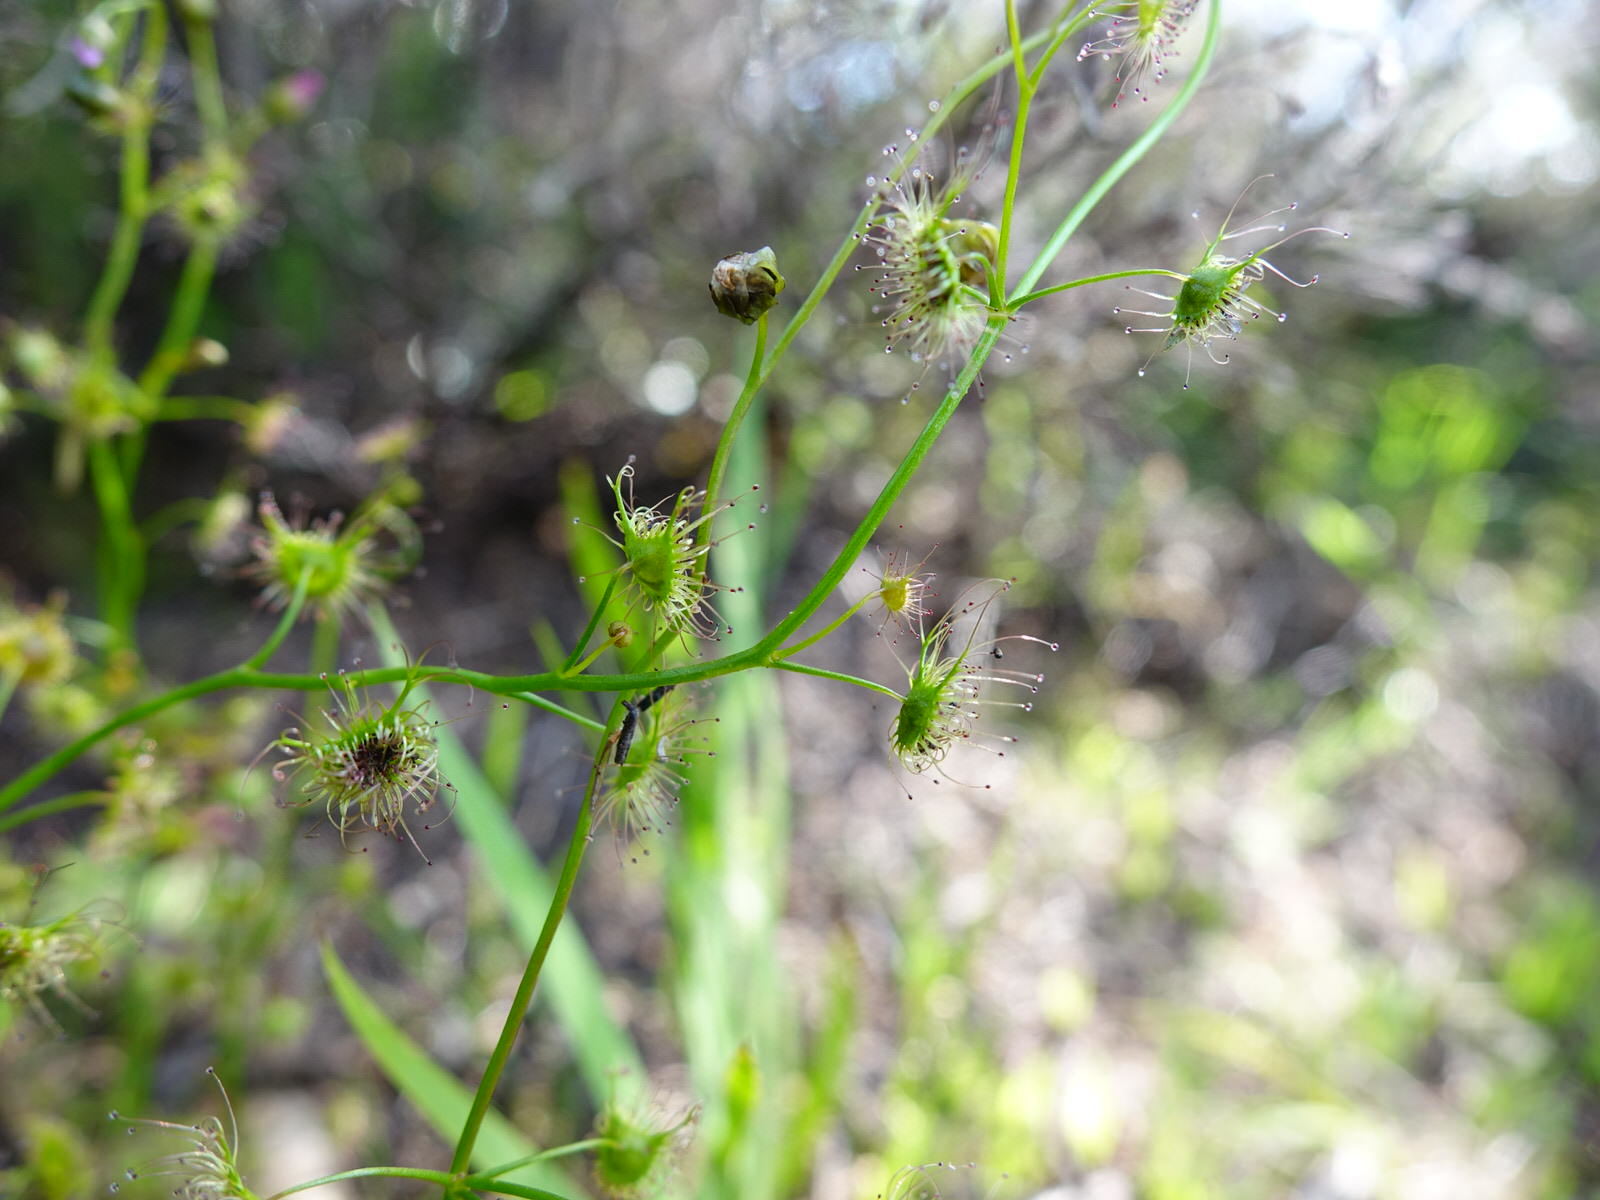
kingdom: Plantae
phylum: Tracheophyta
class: Magnoliopsida
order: Caryophyllales
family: Droseraceae
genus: Drosera
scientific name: Drosera peltata
